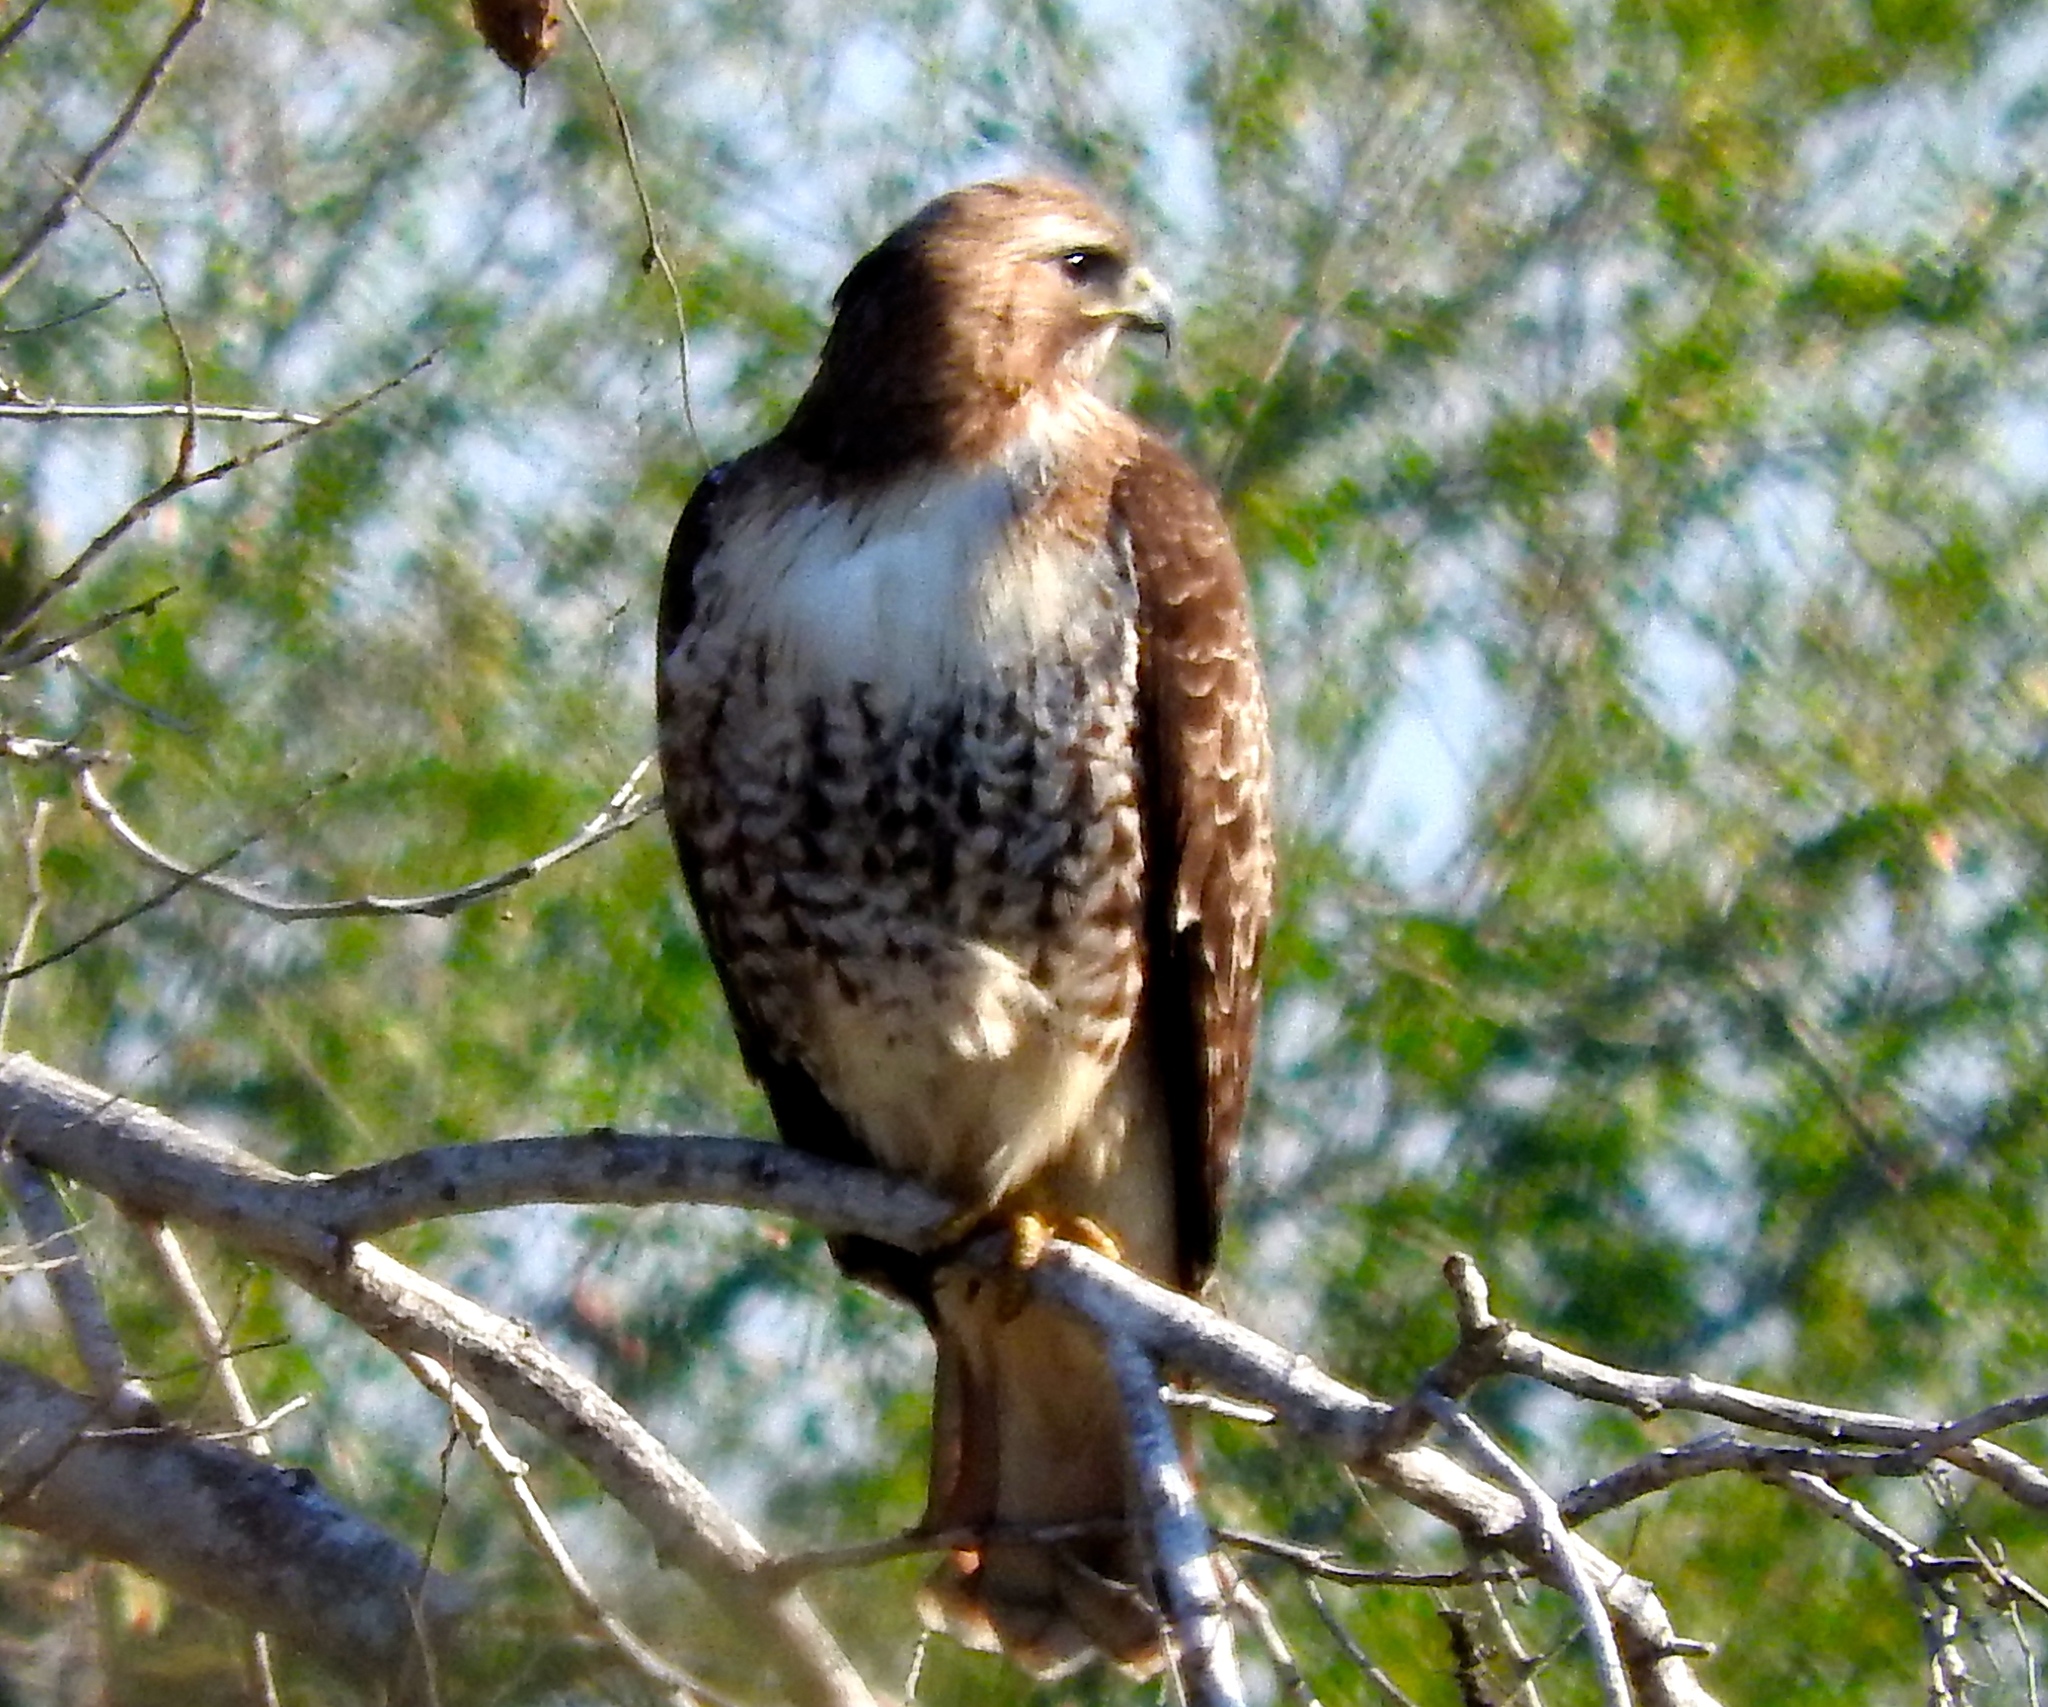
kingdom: Animalia
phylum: Chordata
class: Aves
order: Accipitriformes
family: Accipitridae
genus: Buteo
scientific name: Buteo jamaicensis
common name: Red-tailed hawk
